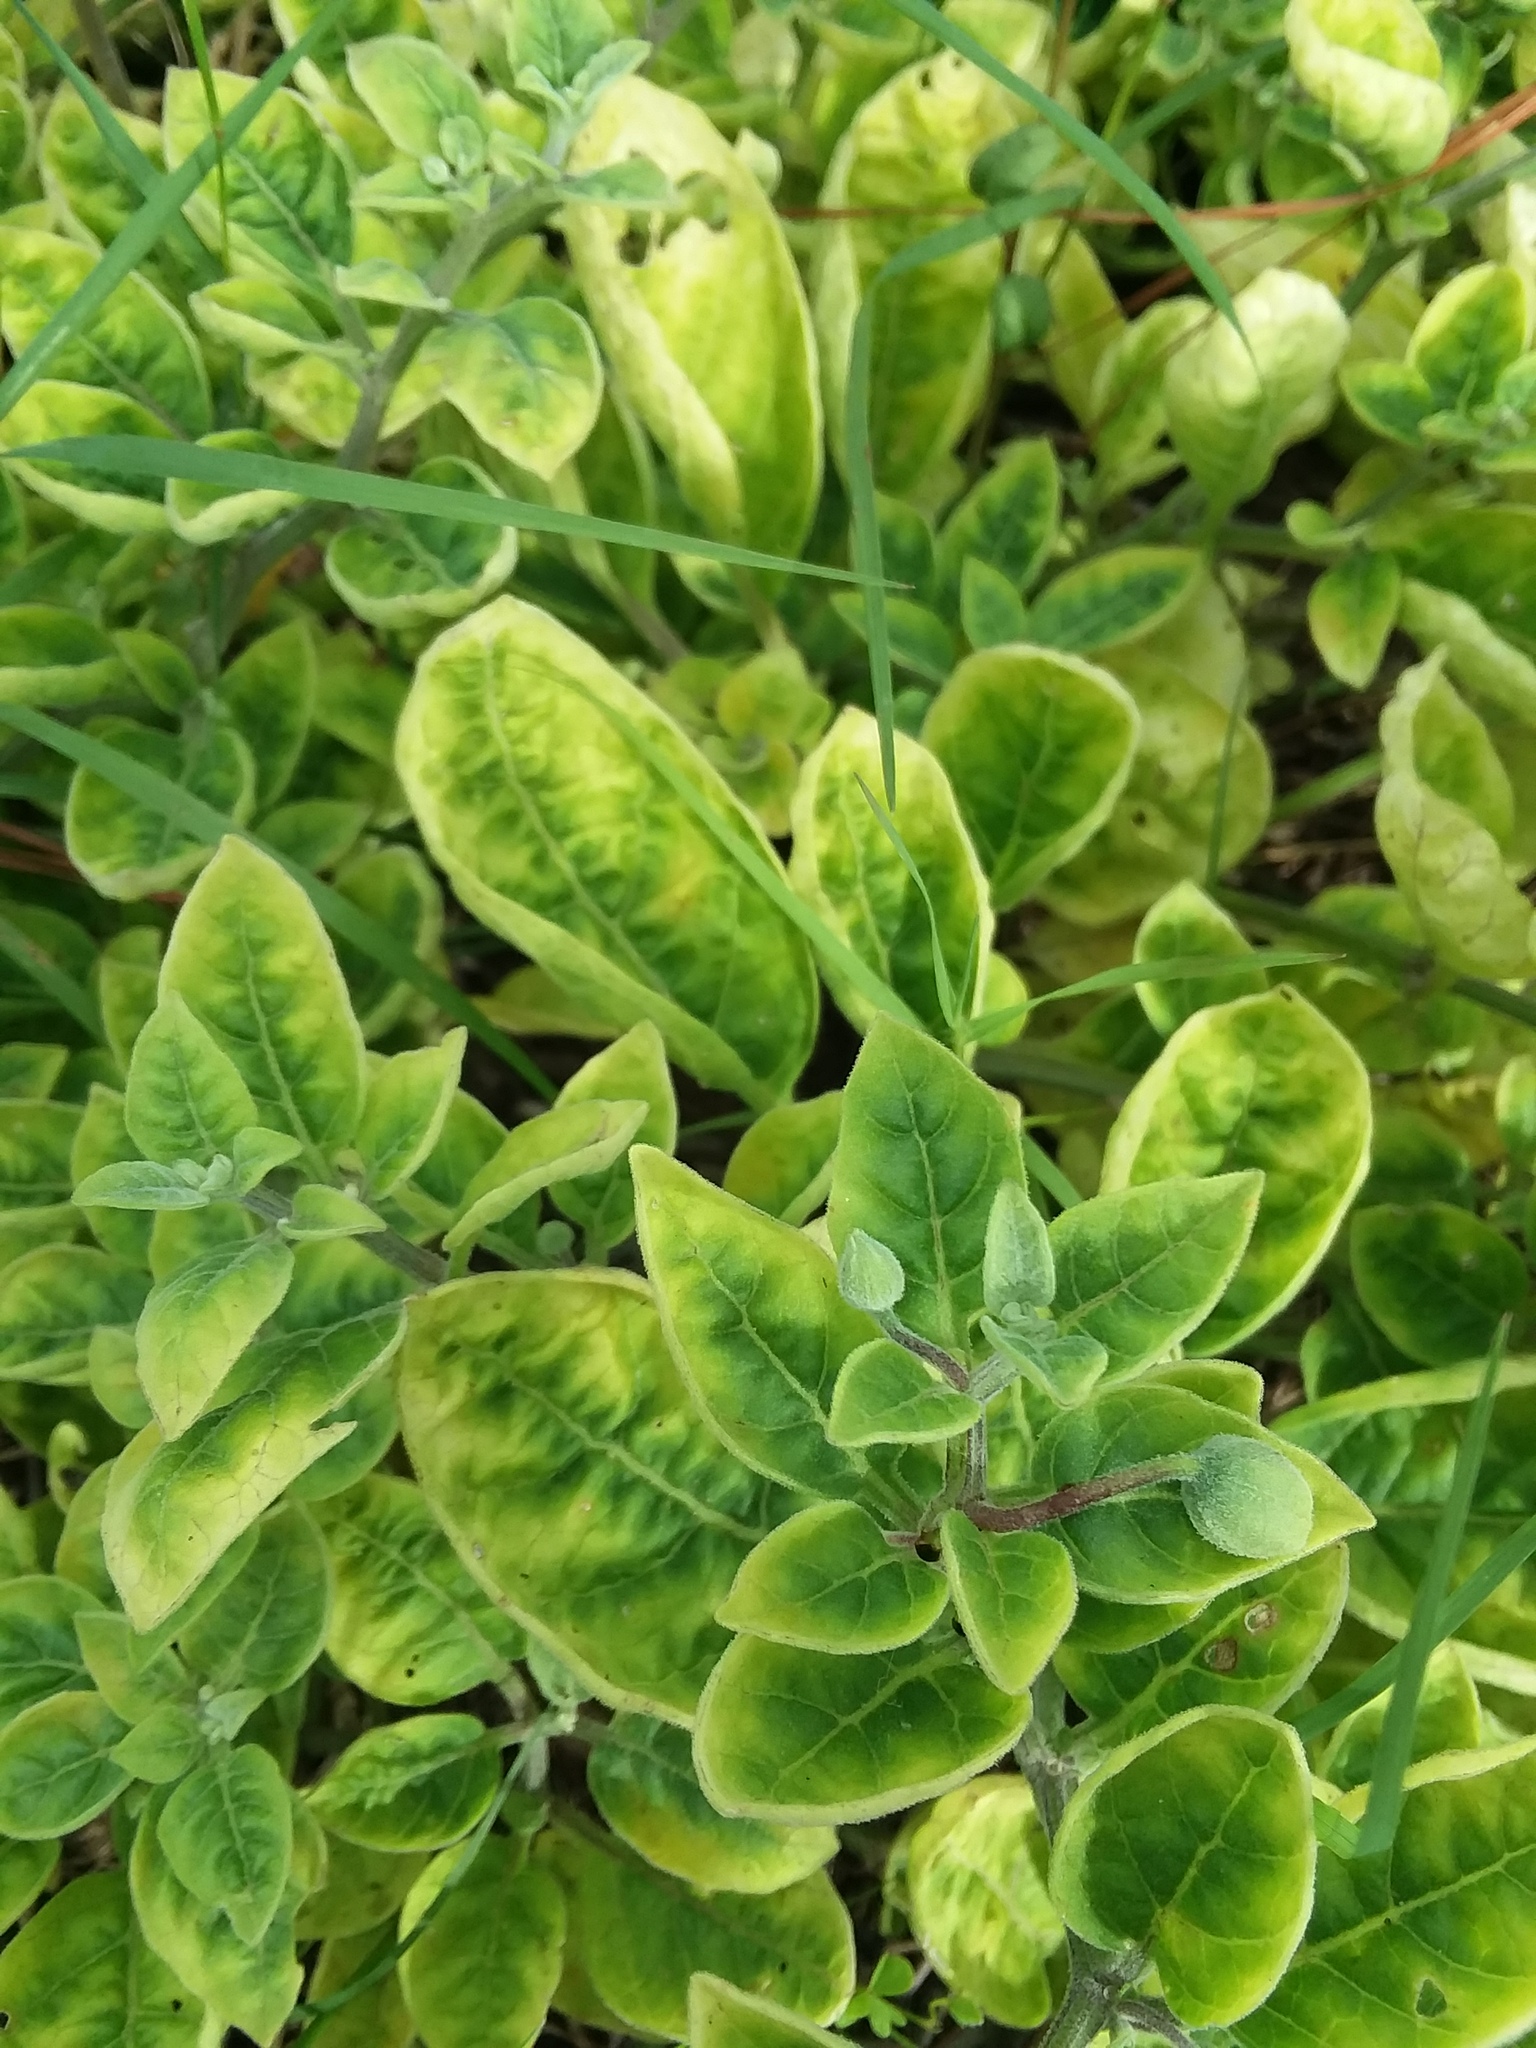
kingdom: Plantae
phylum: Tracheophyta
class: Magnoliopsida
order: Solanales
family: Solanaceae
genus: Physalis
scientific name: Physalis walteri
